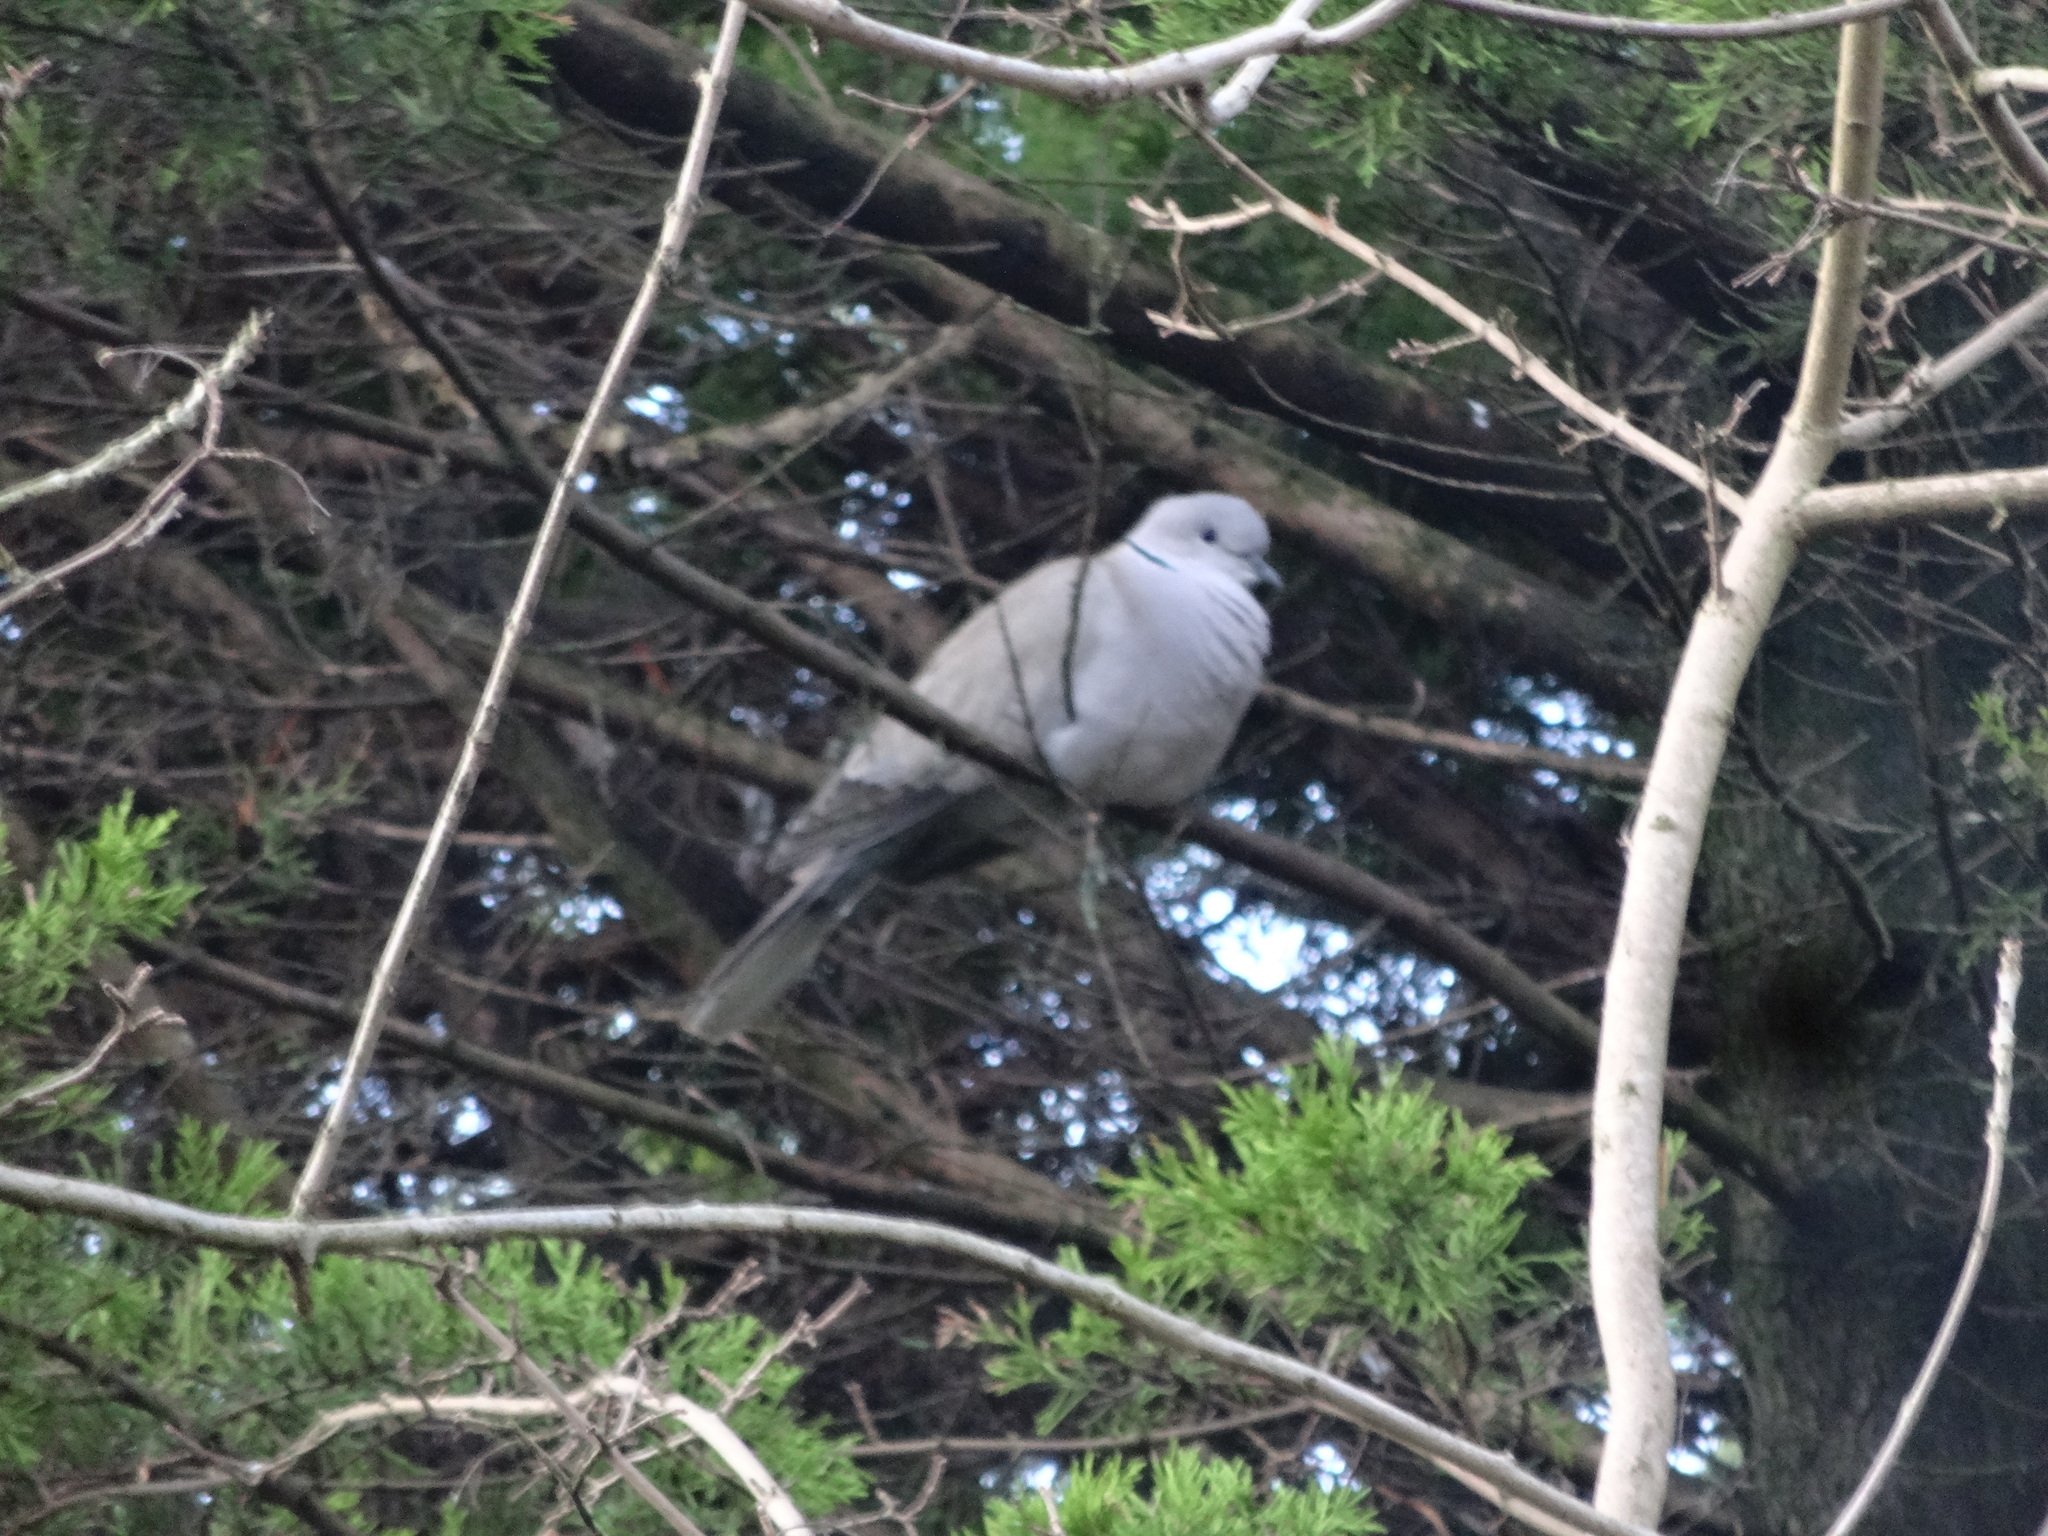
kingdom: Animalia
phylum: Chordata
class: Aves
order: Columbiformes
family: Columbidae
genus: Streptopelia
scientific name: Streptopelia decaocto
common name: Eurasian collared dove
